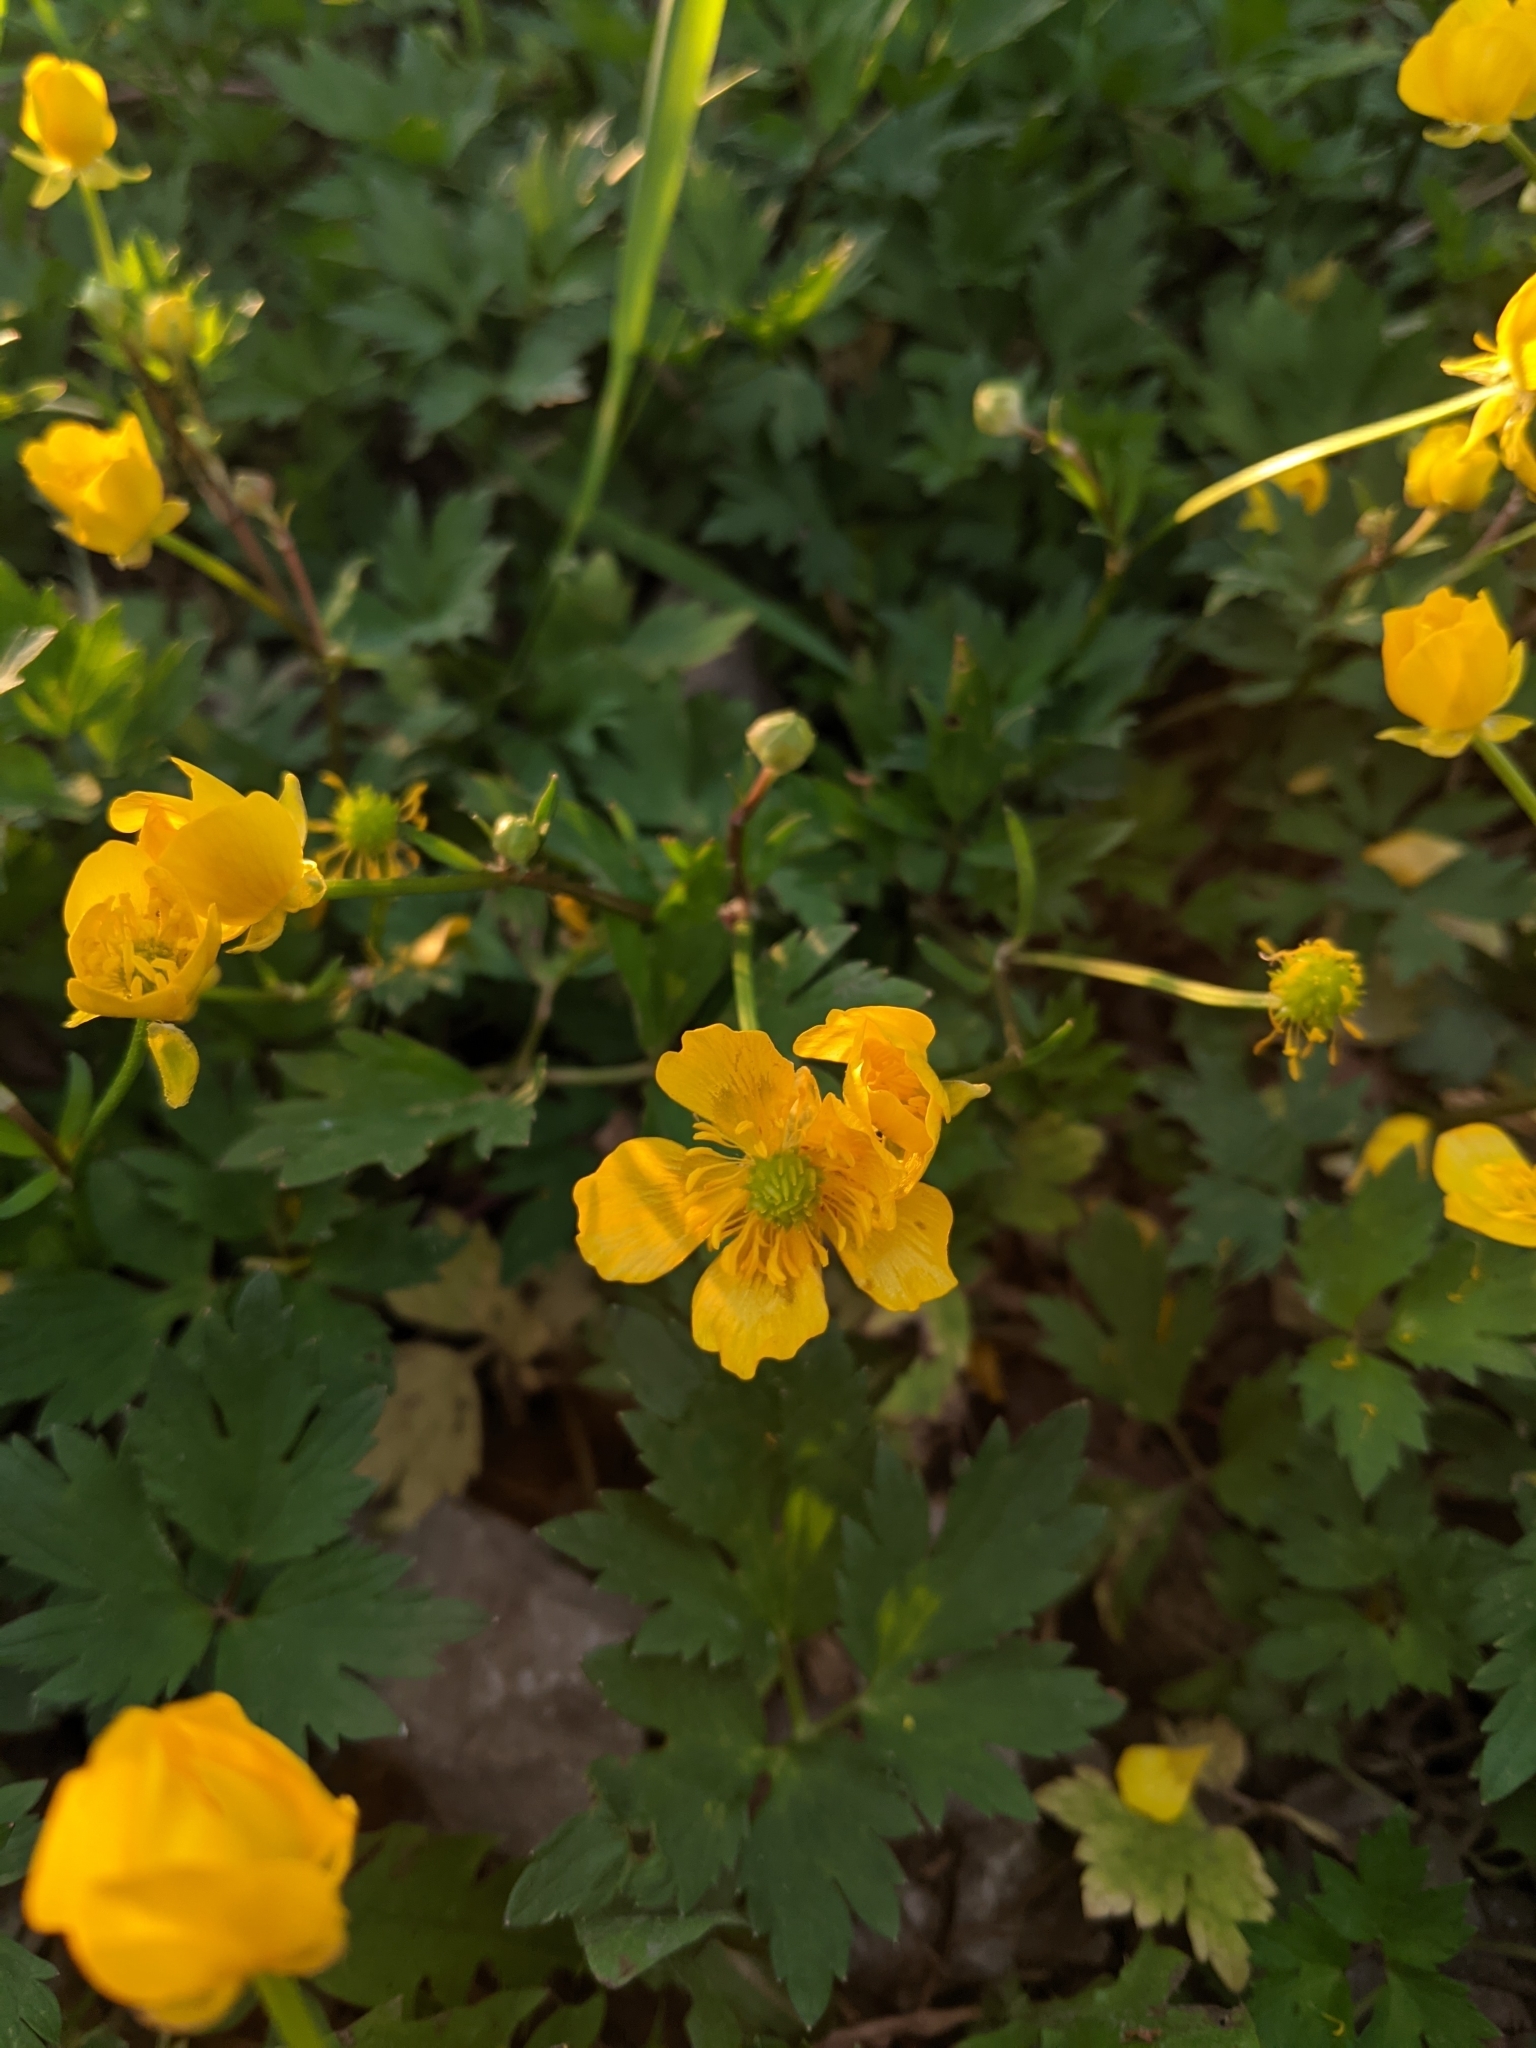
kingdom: Plantae
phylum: Tracheophyta
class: Magnoliopsida
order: Ranunculales
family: Ranunculaceae
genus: Ranunculus
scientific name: Ranunculus repens
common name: Creeping buttercup
